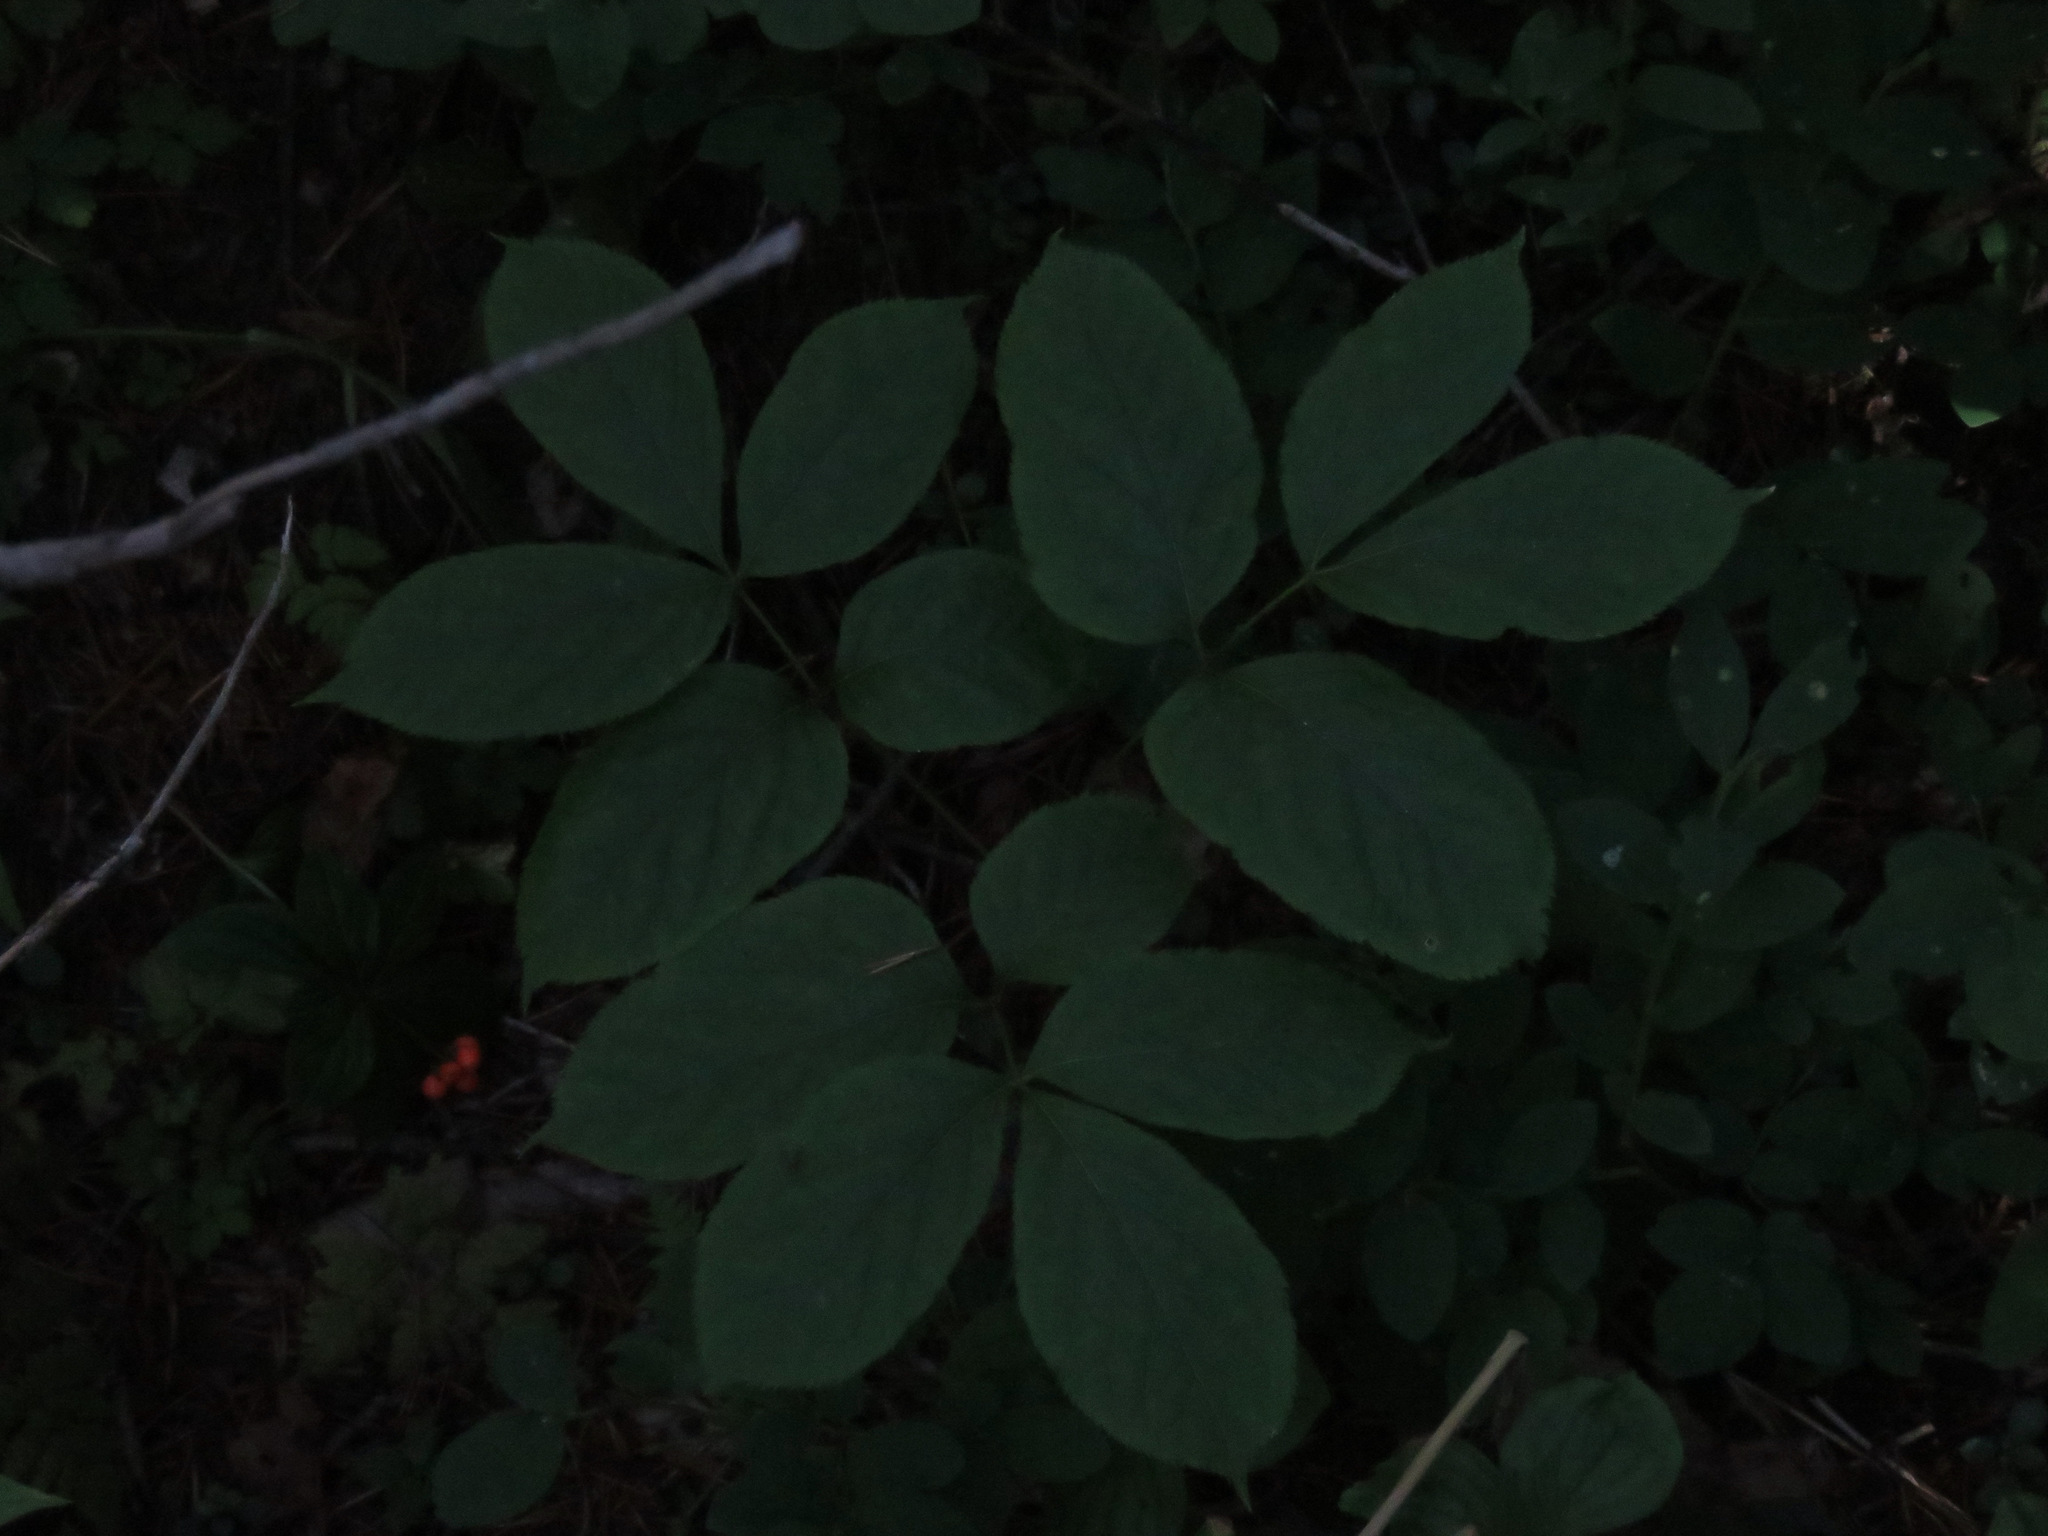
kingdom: Plantae
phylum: Tracheophyta
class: Magnoliopsida
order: Apiales
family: Araliaceae
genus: Aralia
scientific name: Aralia nudicaulis
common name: Wild sarsaparilla
